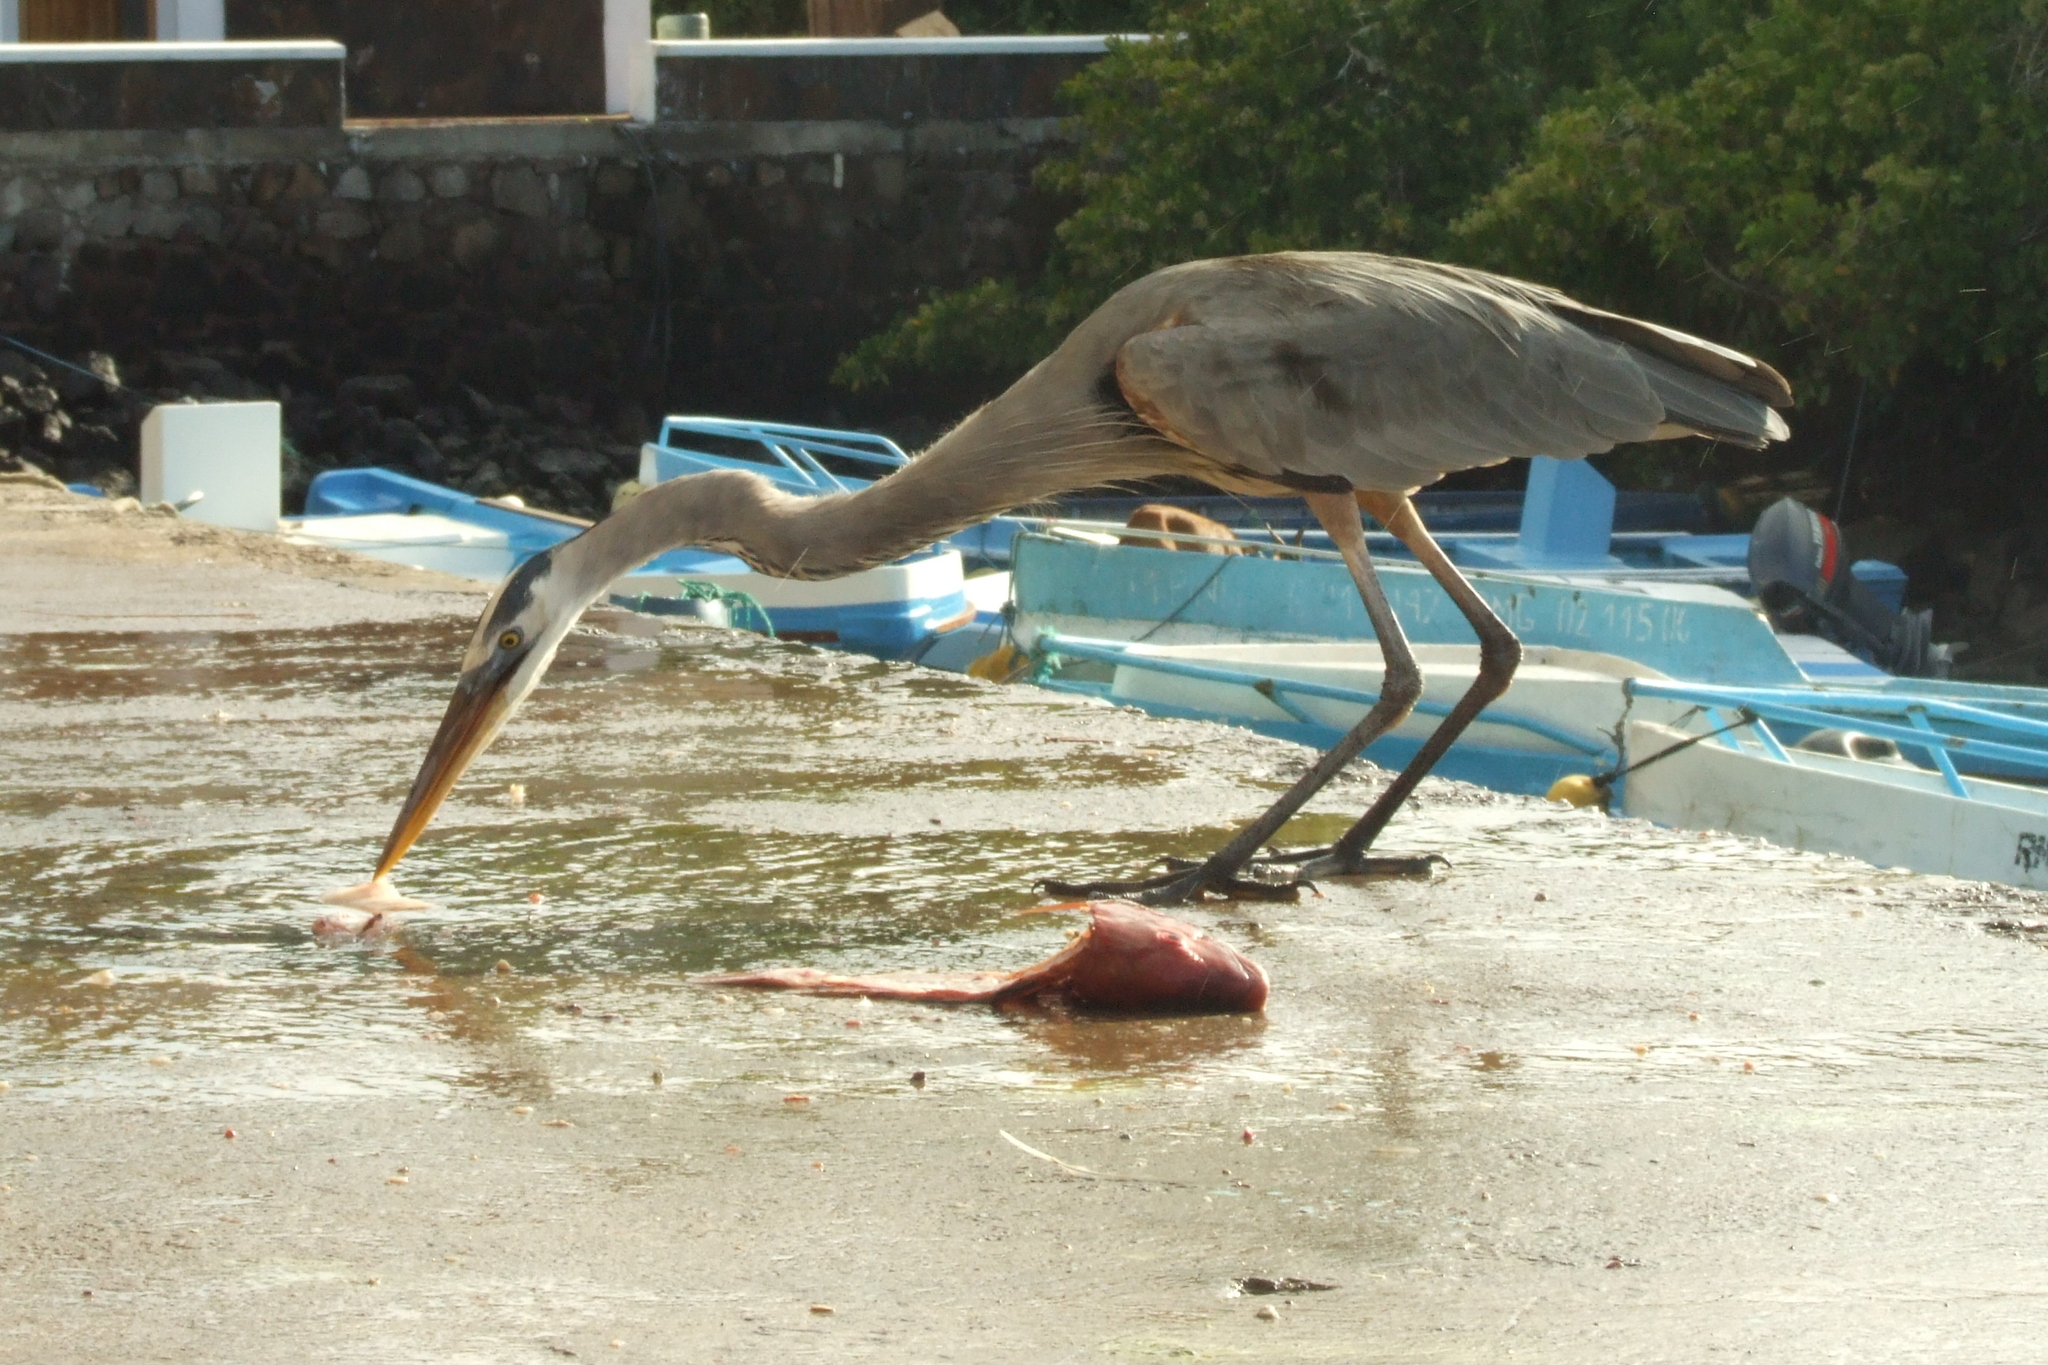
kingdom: Animalia
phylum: Chordata
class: Aves
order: Pelecaniformes
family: Ardeidae
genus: Ardea
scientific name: Ardea herodias
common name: Great blue heron
